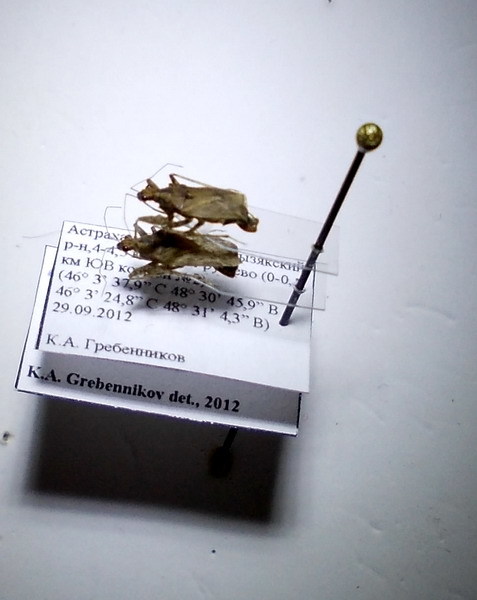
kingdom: Animalia
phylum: Arthropoda
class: Insecta
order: Hemiptera
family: Nabidae
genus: Nabis
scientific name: Nabis sareptanus
